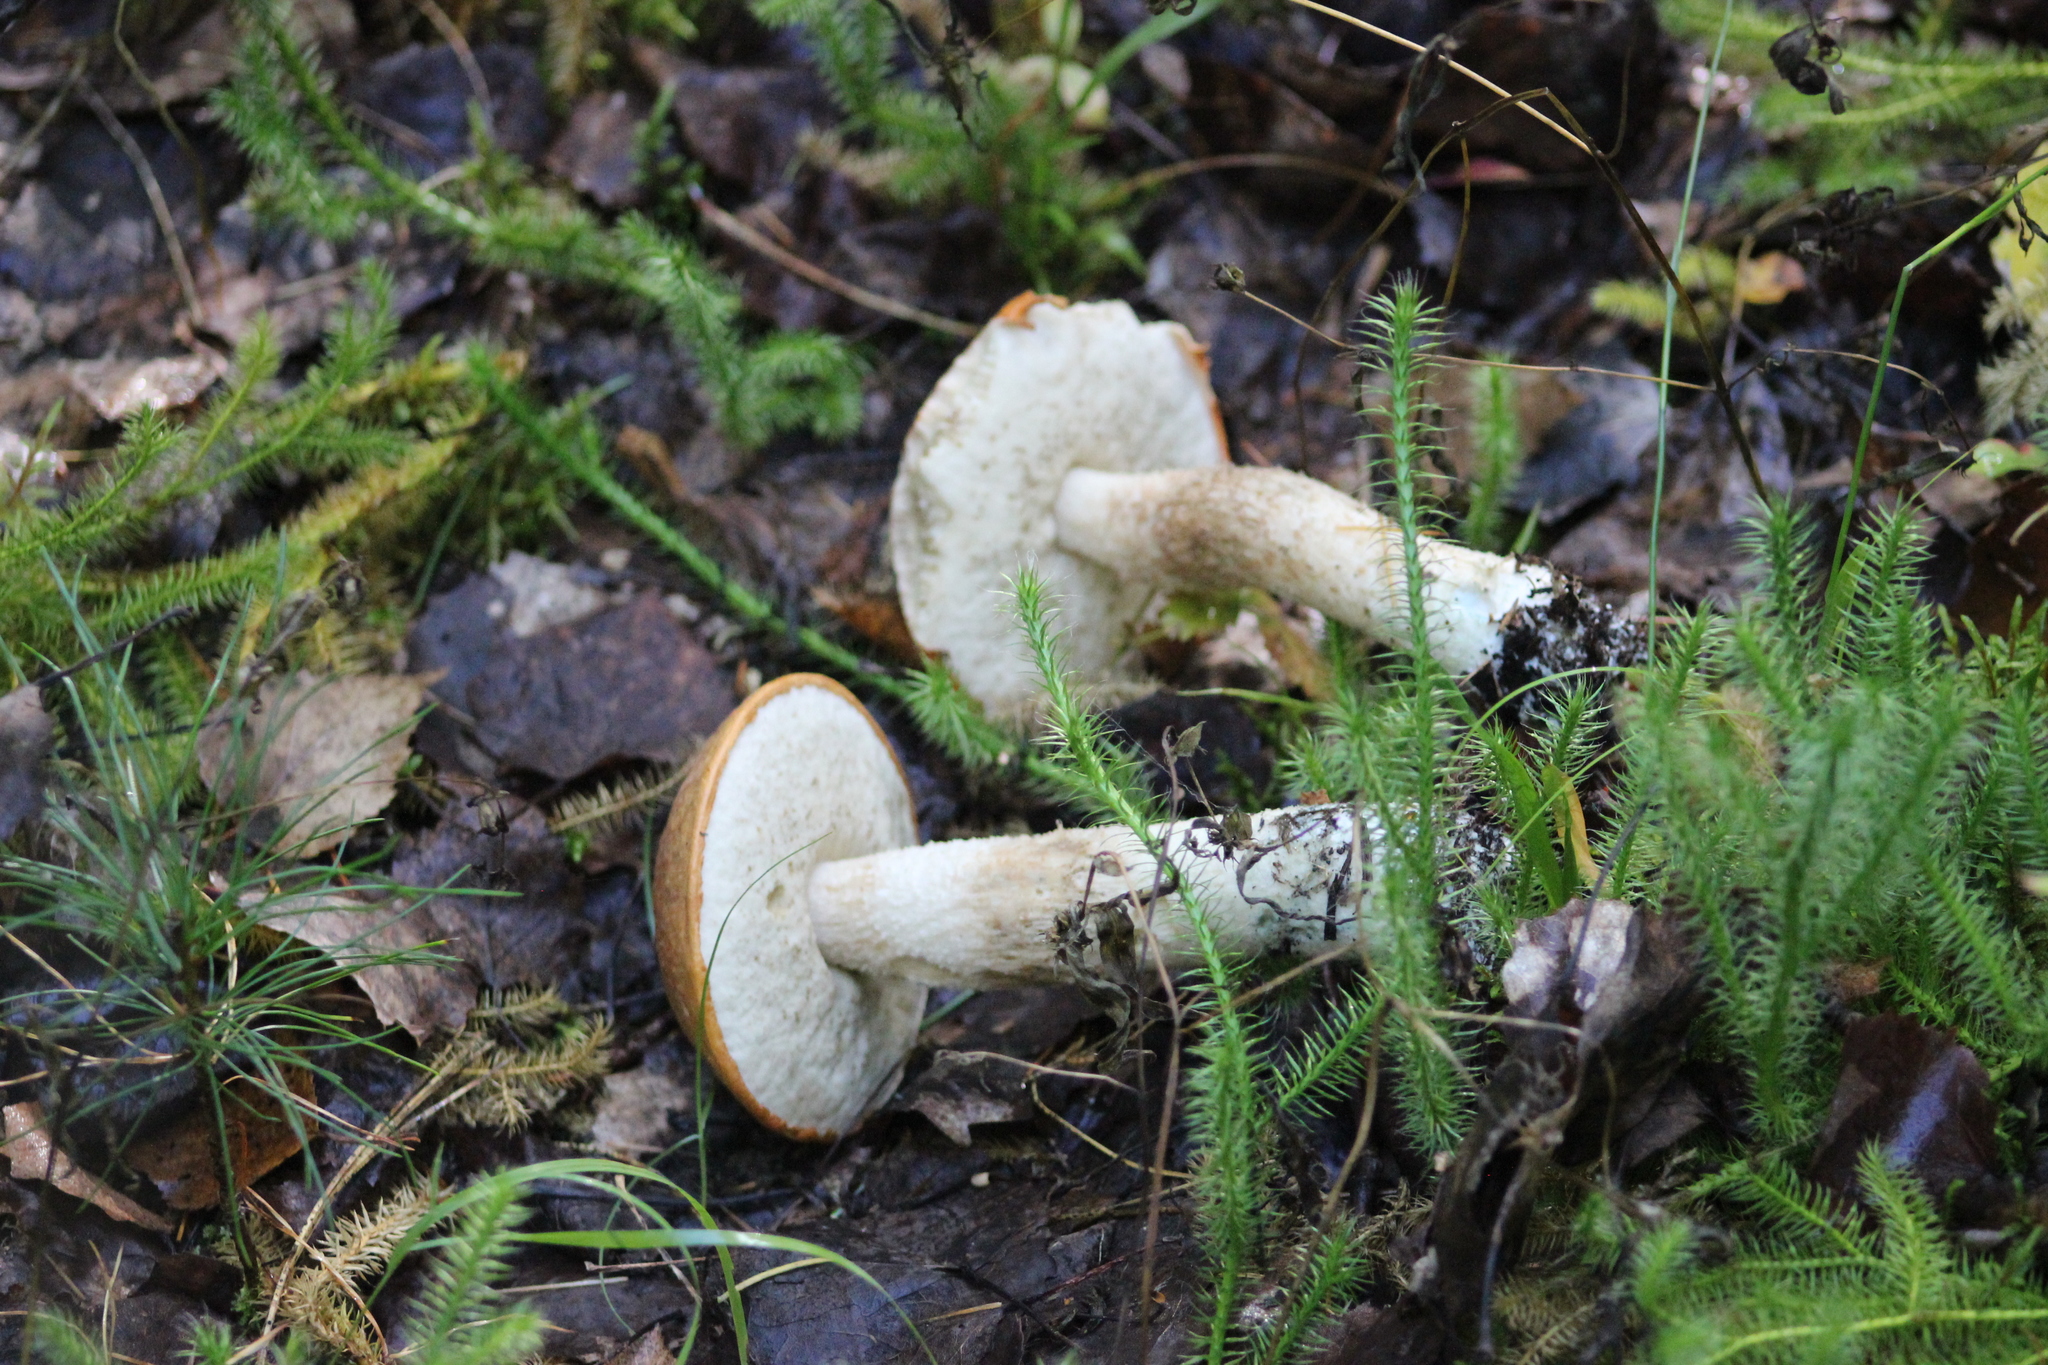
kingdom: Fungi
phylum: Basidiomycota
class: Agaricomycetes
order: Boletales
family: Boletaceae
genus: Leccinum
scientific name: Leccinum albostipitatum
